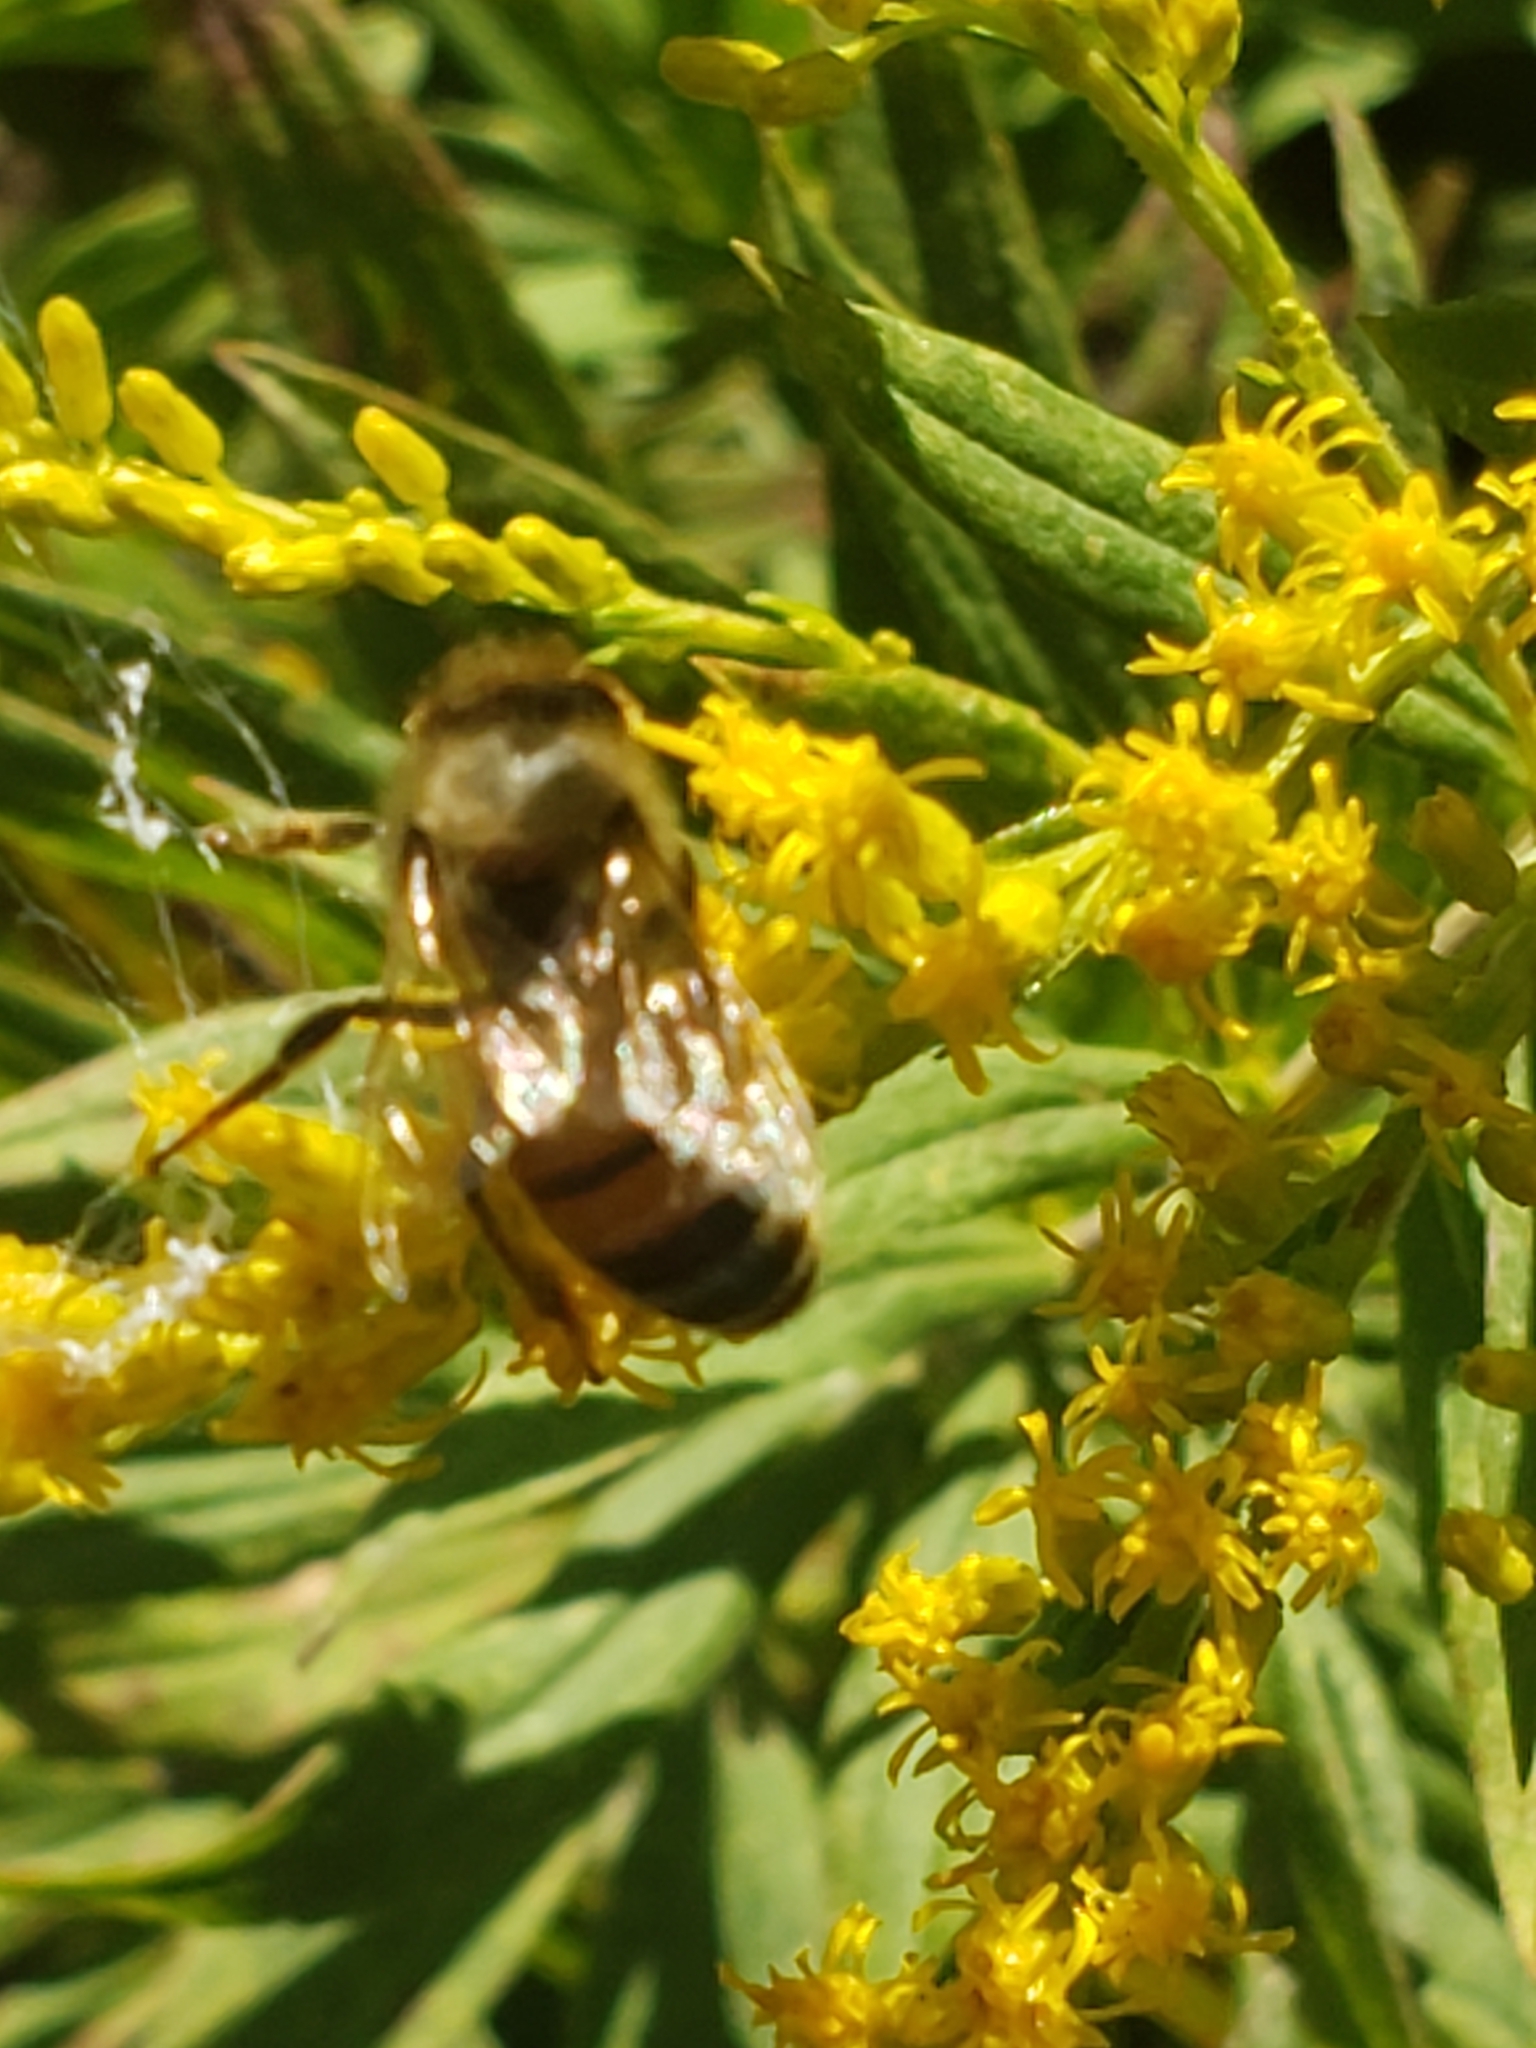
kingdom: Animalia
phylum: Arthropoda
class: Insecta
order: Hymenoptera
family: Apidae
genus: Apis
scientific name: Apis mellifera
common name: Honey bee
